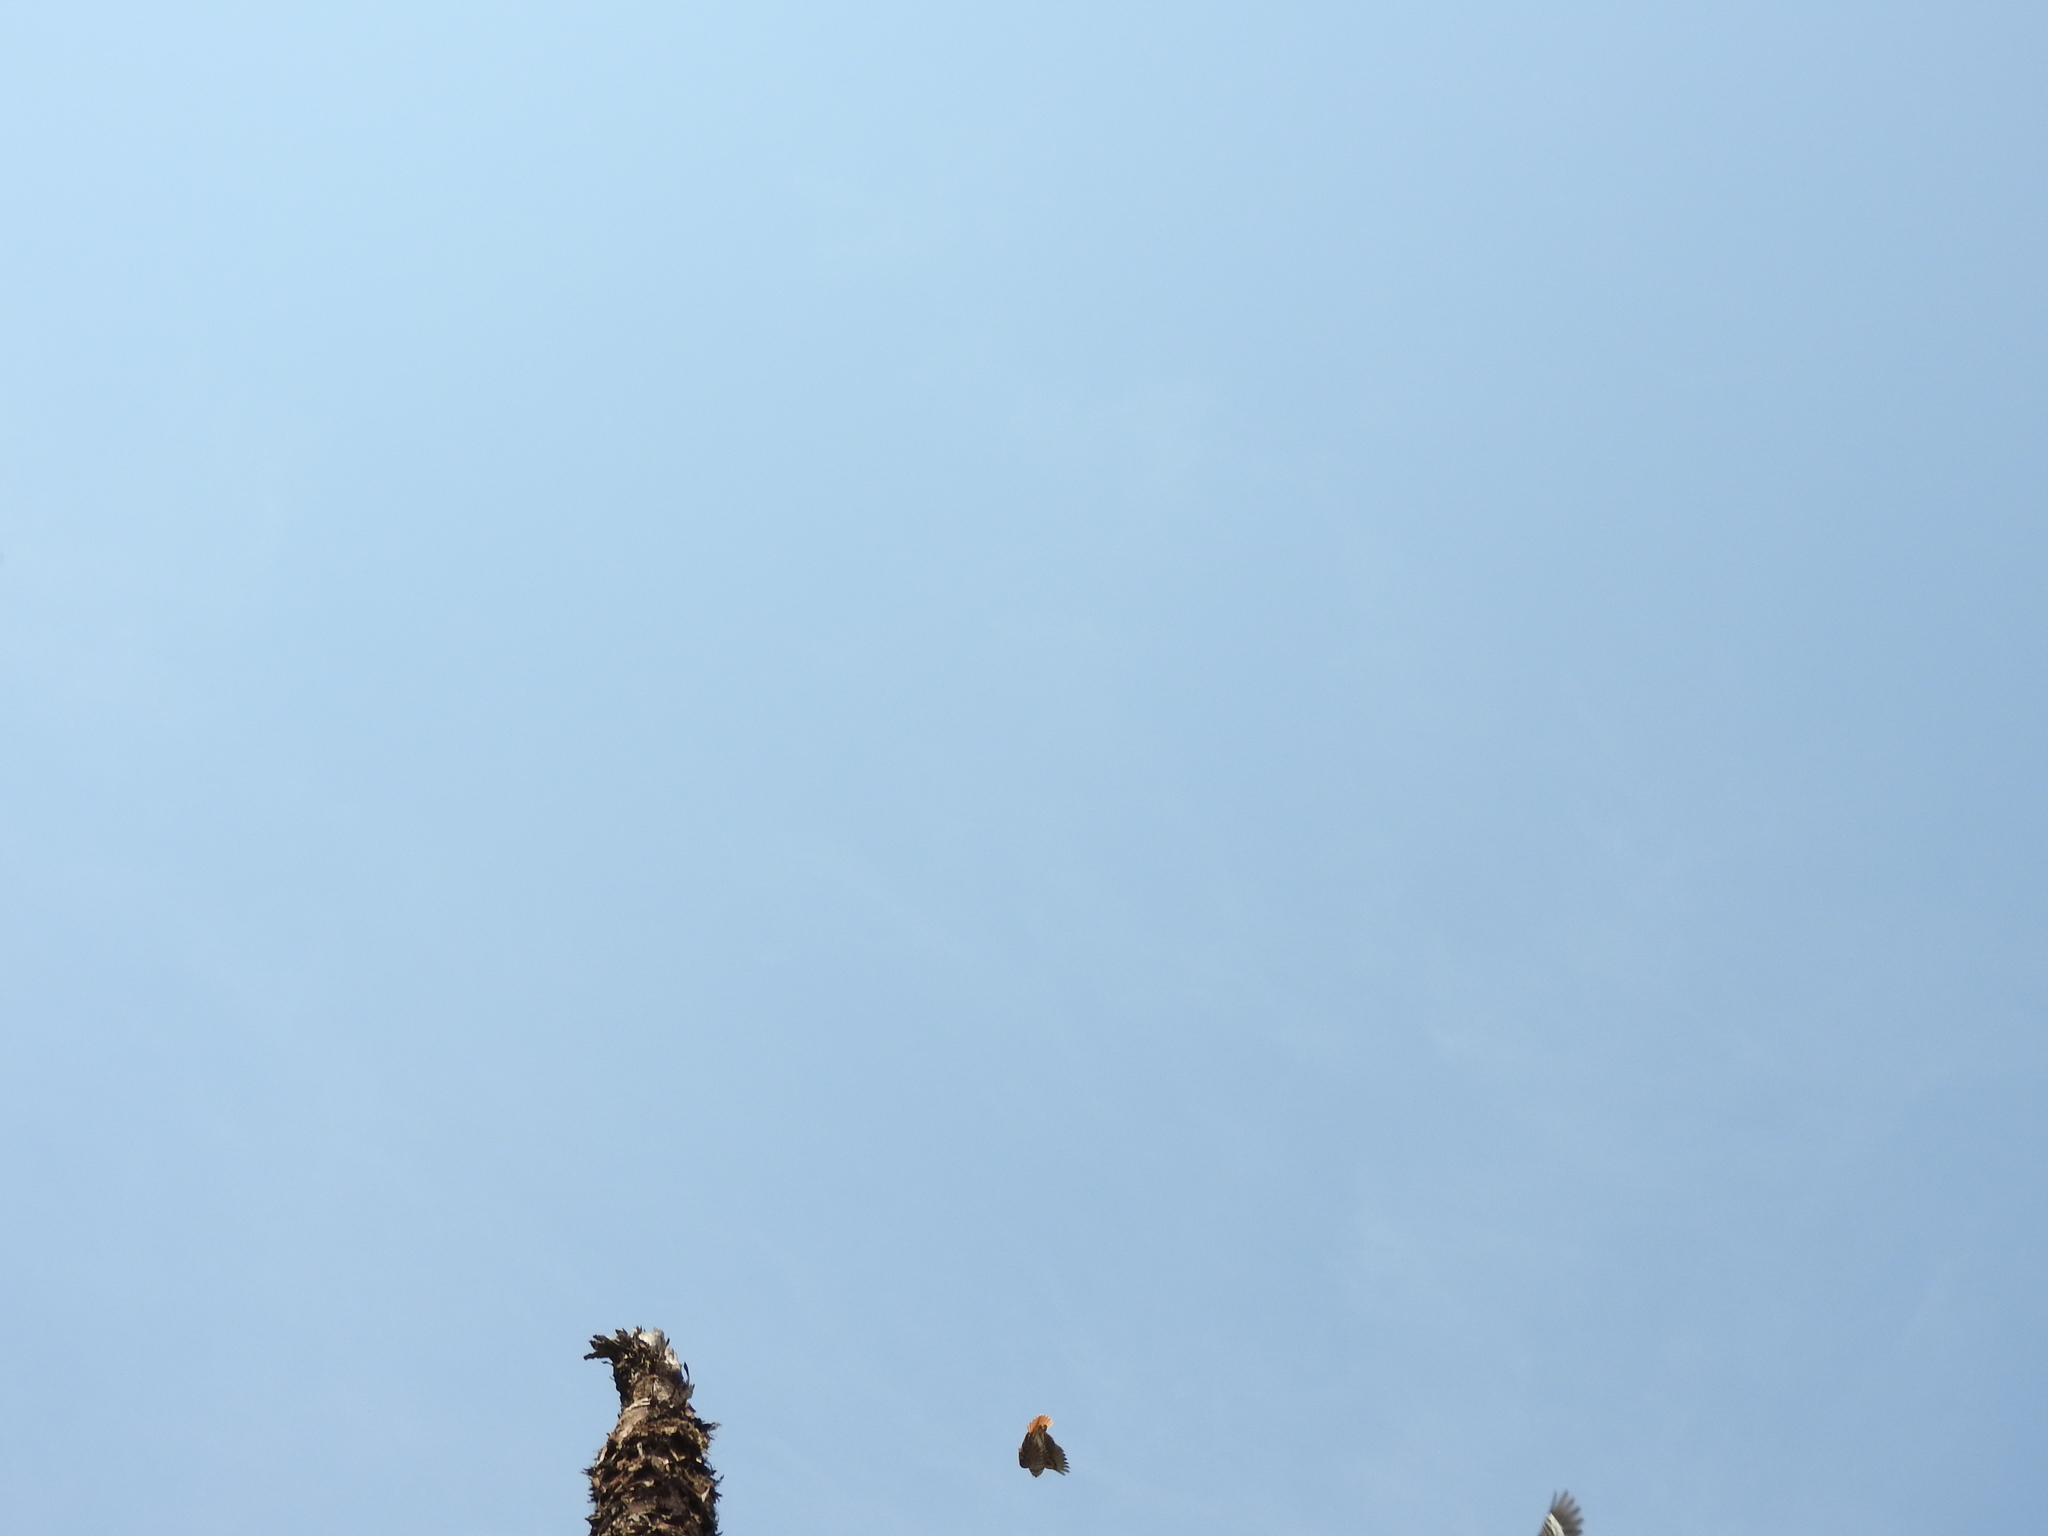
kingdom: Animalia
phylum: Chordata
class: Aves
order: Strigiformes
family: Strigidae
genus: Glaucidium
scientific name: Glaucidium brasilianum
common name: Ferruginous pygmy-owl
